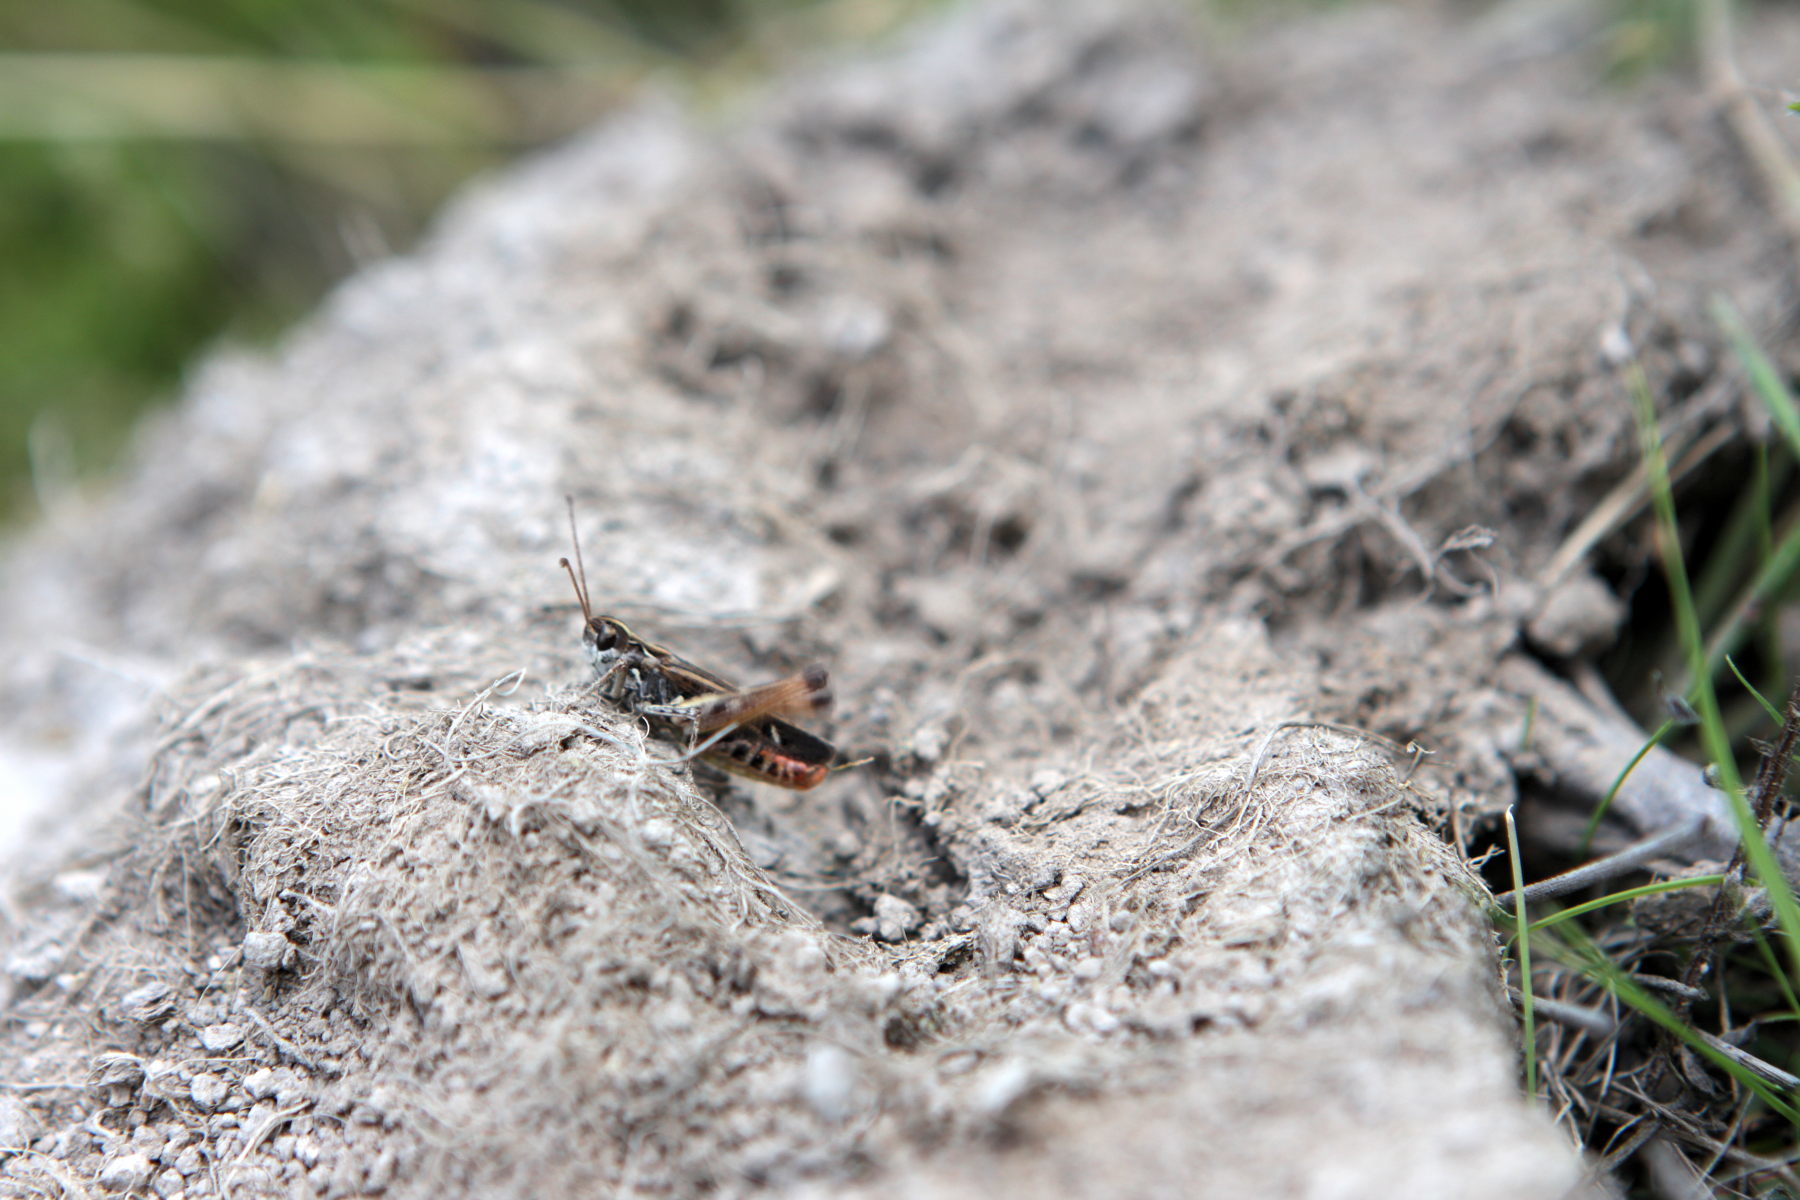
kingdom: Animalia
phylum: Arthropoda
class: Insecta
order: Orthoptera
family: Acrididae
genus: Myrmeleotettix
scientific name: Myrmeleotettix maculatus
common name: Mottled grasshopper
